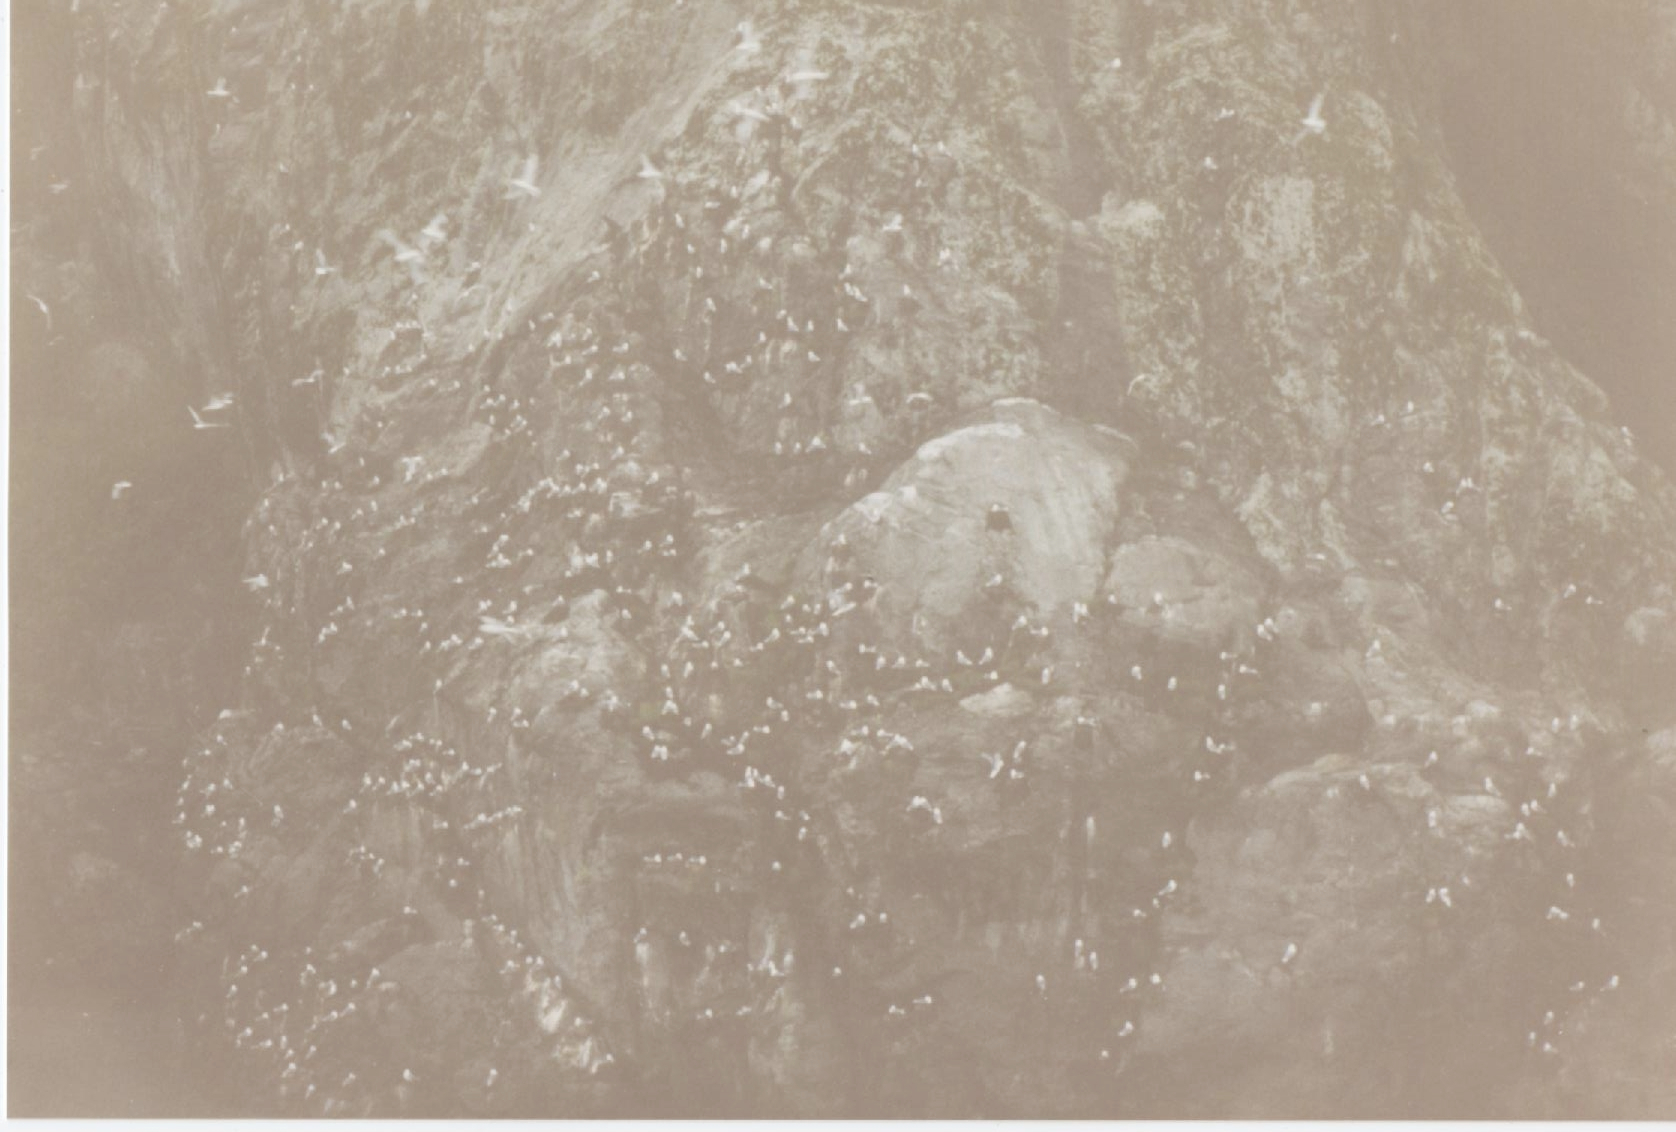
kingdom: Animalia
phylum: Chordata
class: Aves
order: Charadriiformes
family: Laridae
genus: Rissa
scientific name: Rissa tridactyla
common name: Black-legged kittiwake
